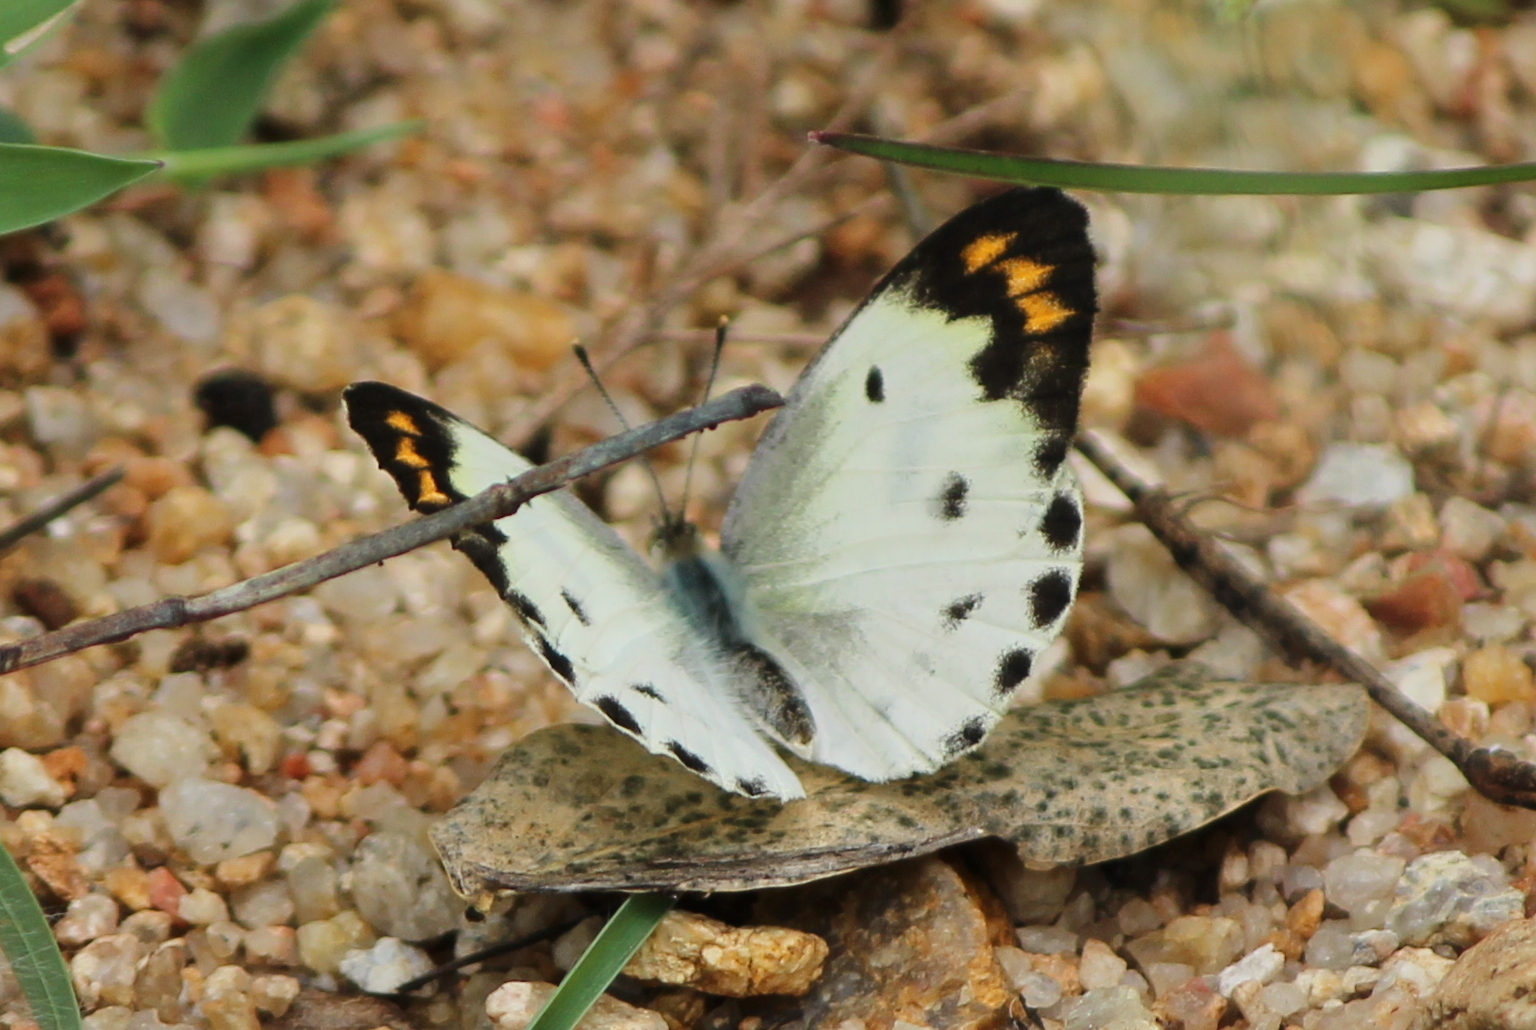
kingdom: Animalia
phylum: Arthropoda
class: Insecta
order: Lepidoptera
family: Pieridae
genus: Colotis
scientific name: Colotis aurora
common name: Plain orange-tip
